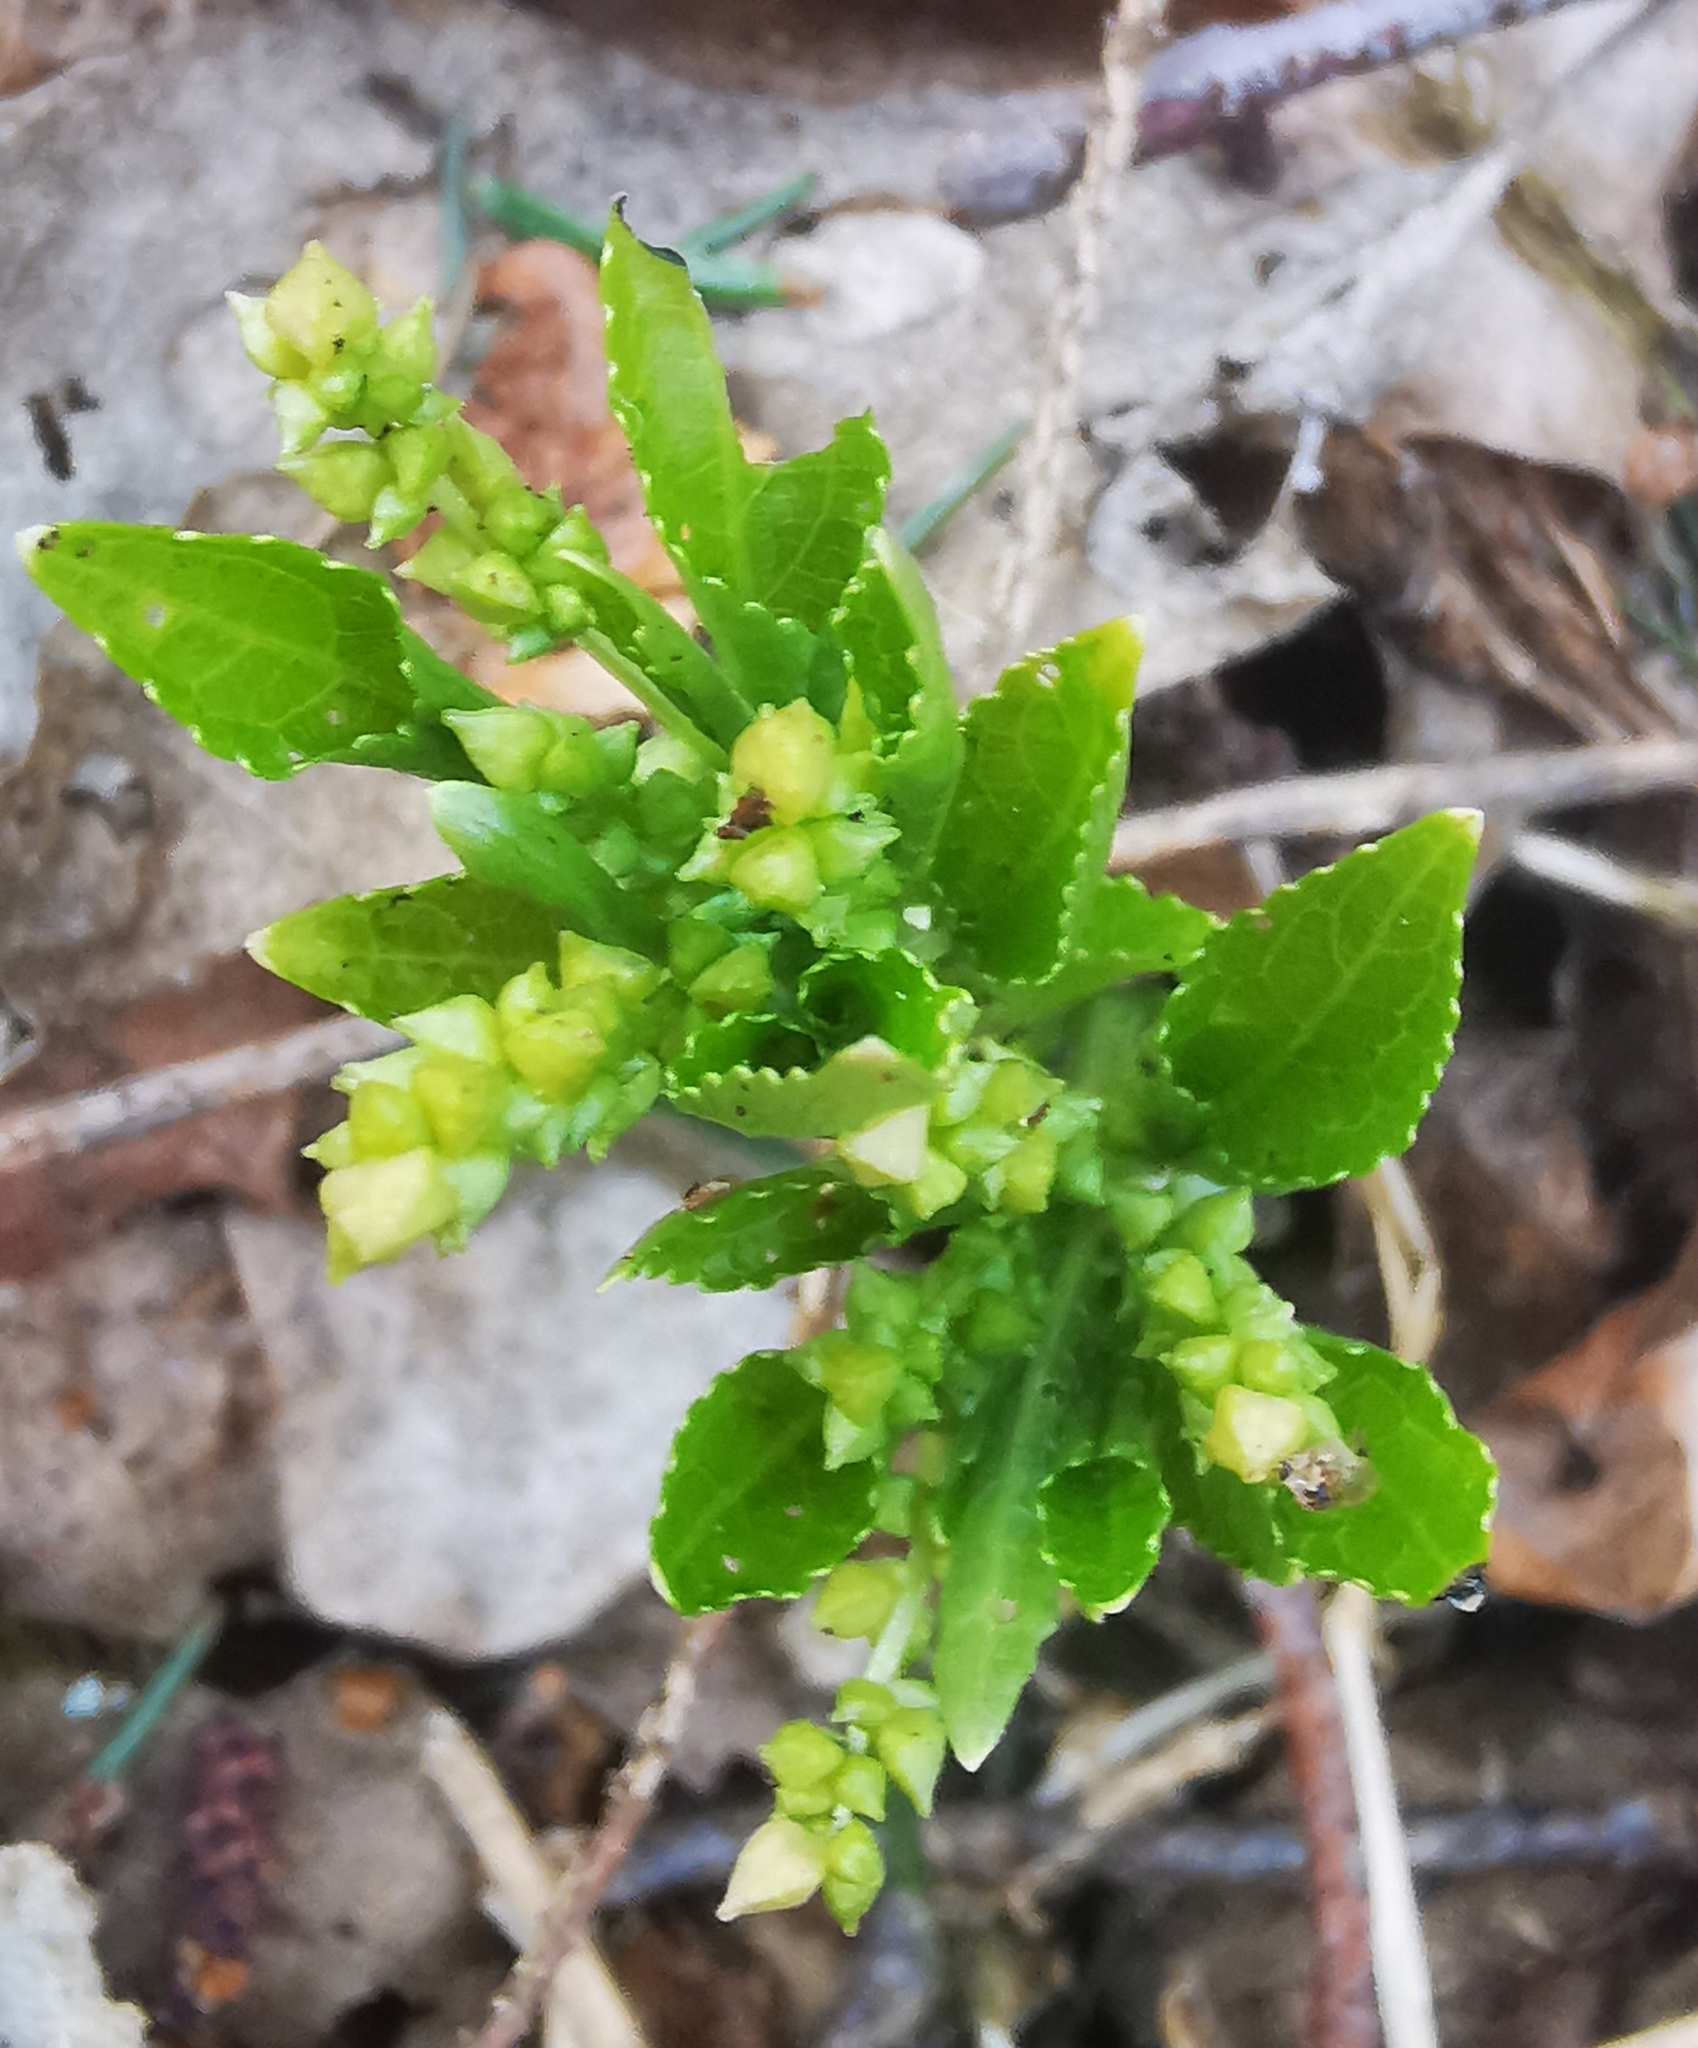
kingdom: Plantae
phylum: Tracheophyta
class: Magnoliopsida
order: Malpighiales
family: Euphorbiaceae
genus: Mercurialis
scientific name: Mercurialis perennis
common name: Dog mercury
